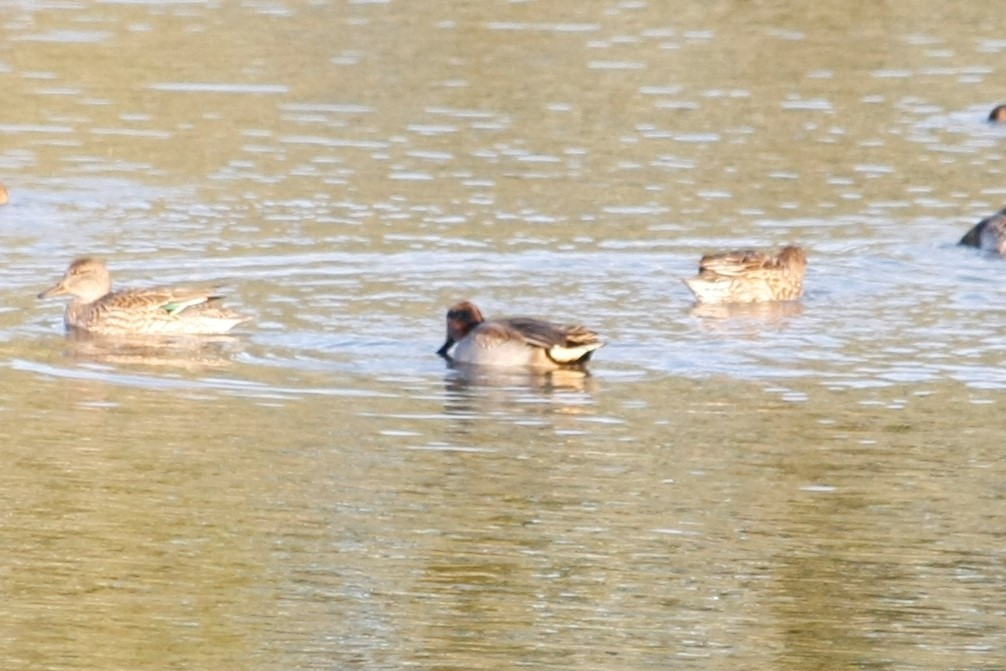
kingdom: Animalia
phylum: Chordata
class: Aves
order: Anseriformes
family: Anatidae
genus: Anas
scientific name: Anas crecca
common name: Eurasian teal
